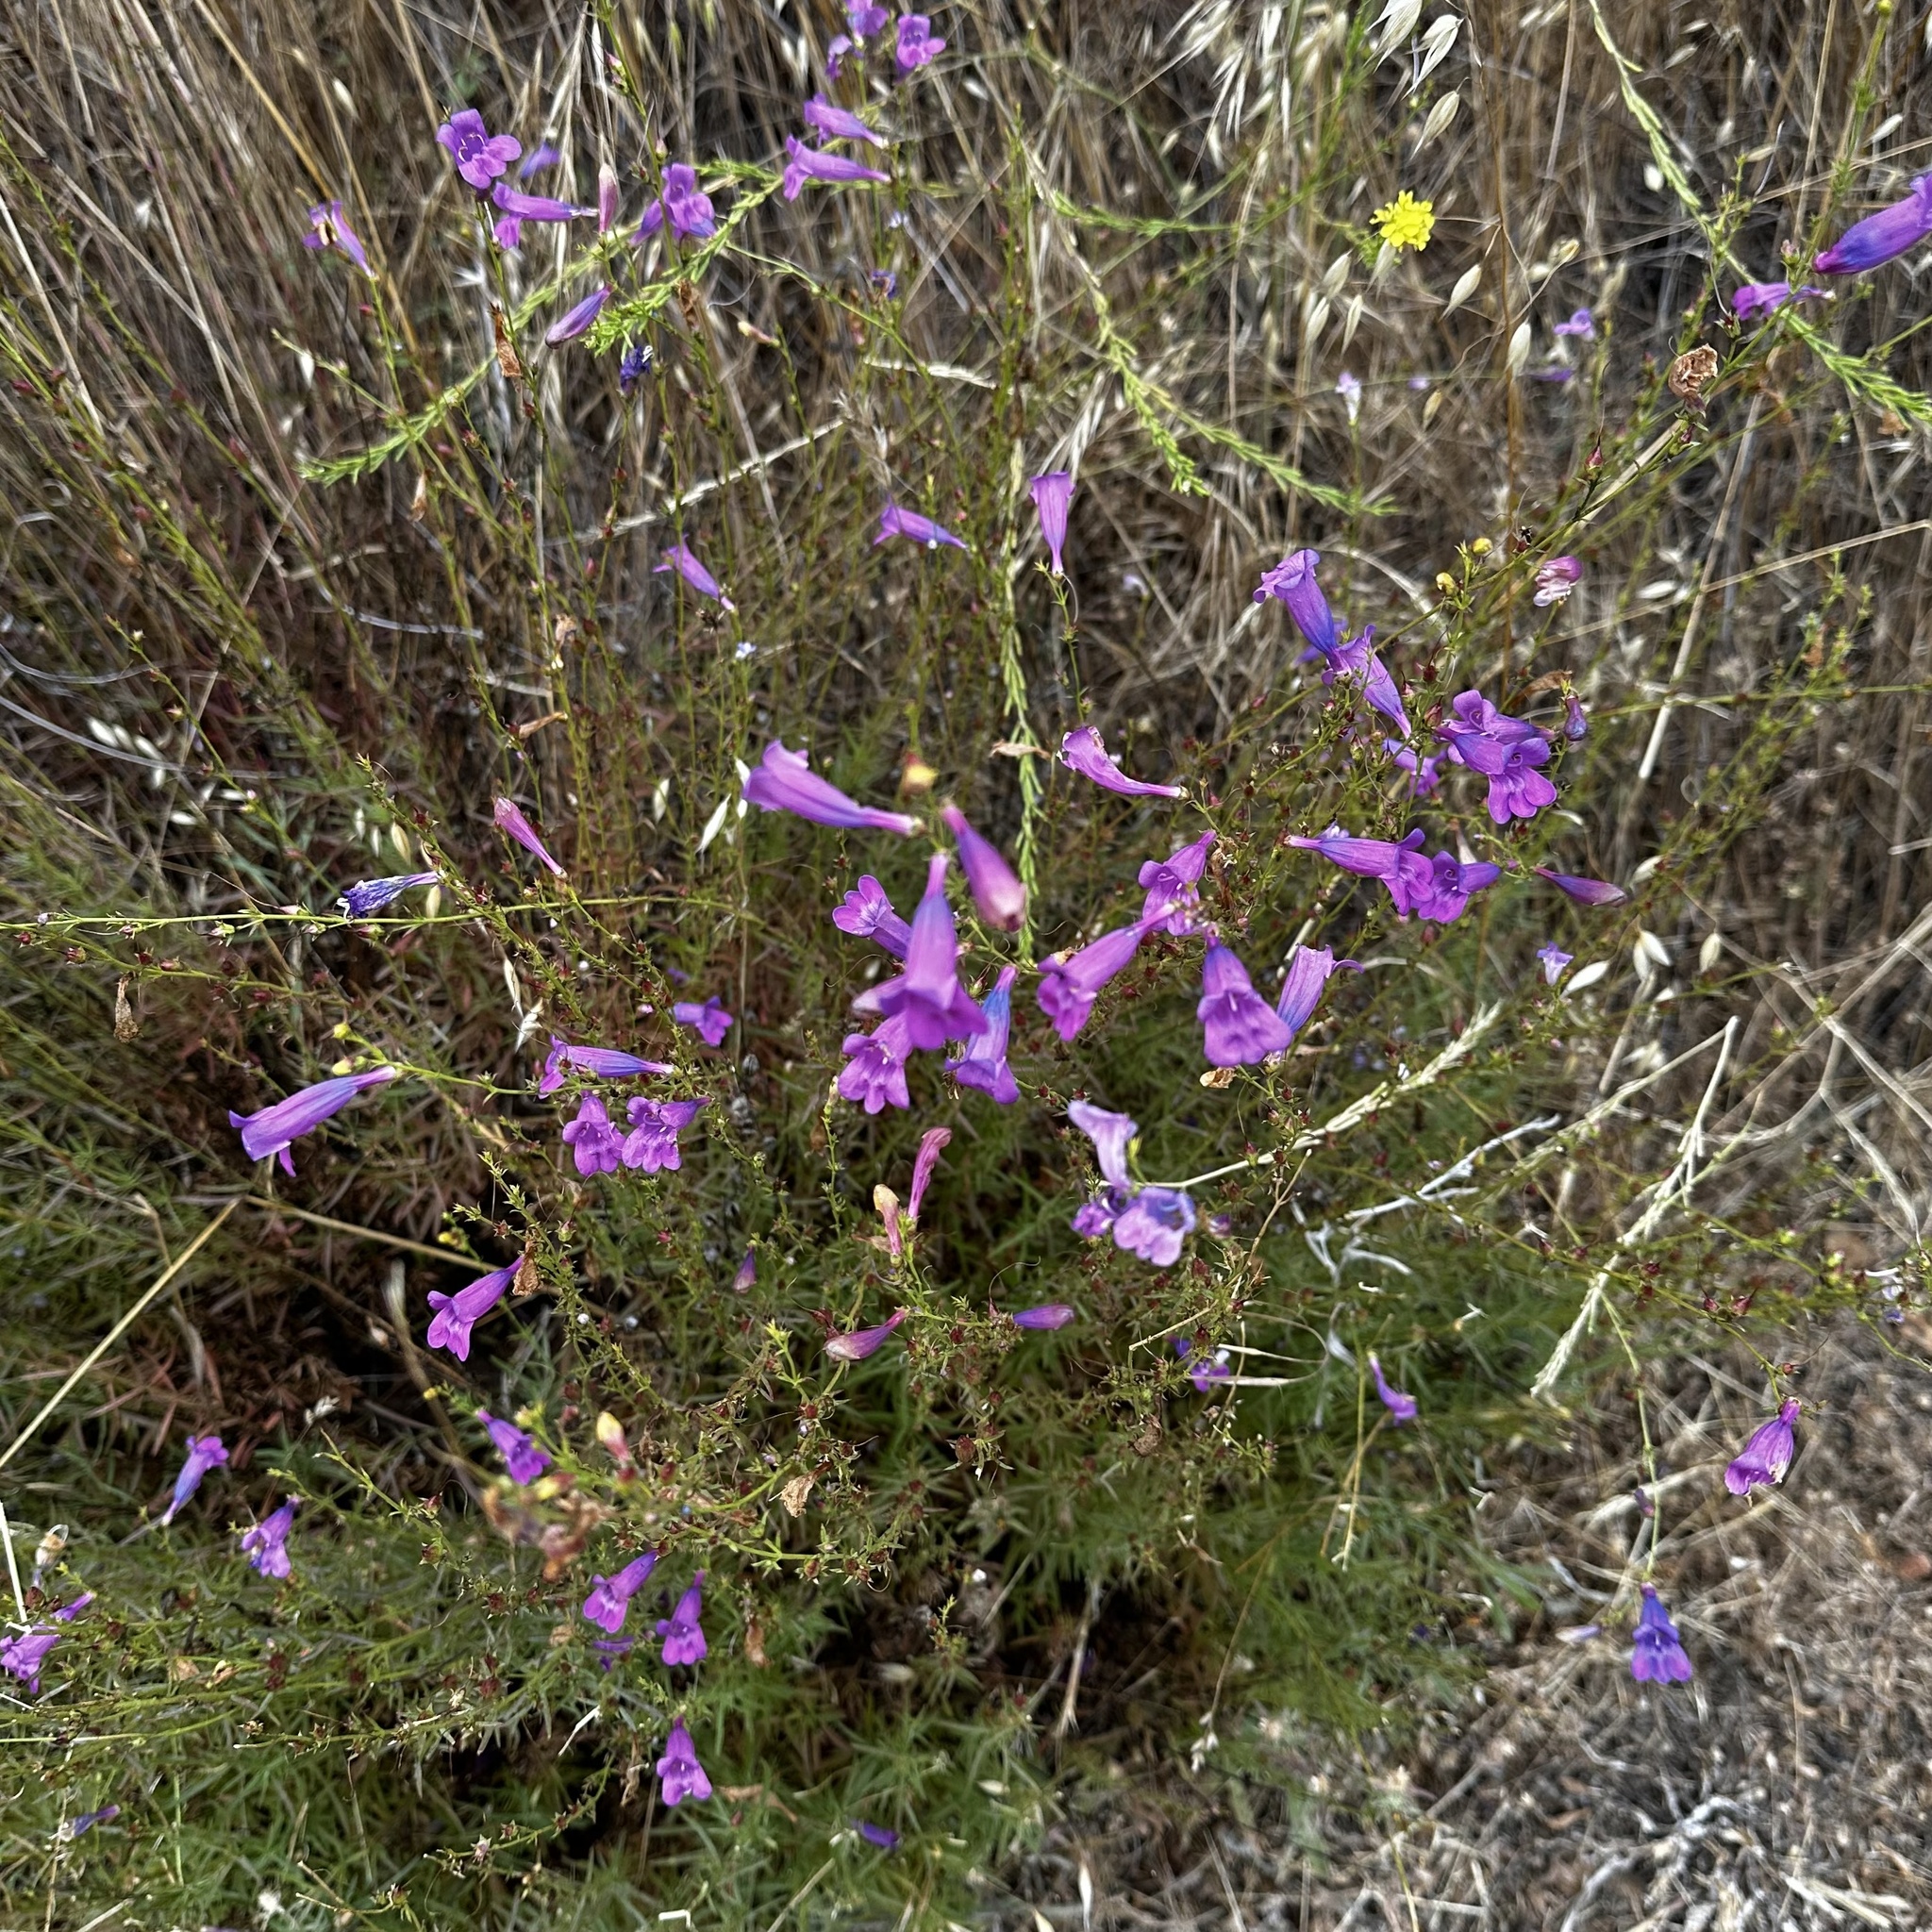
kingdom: Plantae
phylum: Tracheophyta
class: Magnoliopsida
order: Lamiales
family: Plantaginaceae
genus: Penstemon
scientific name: Penstemon heterophyllus
